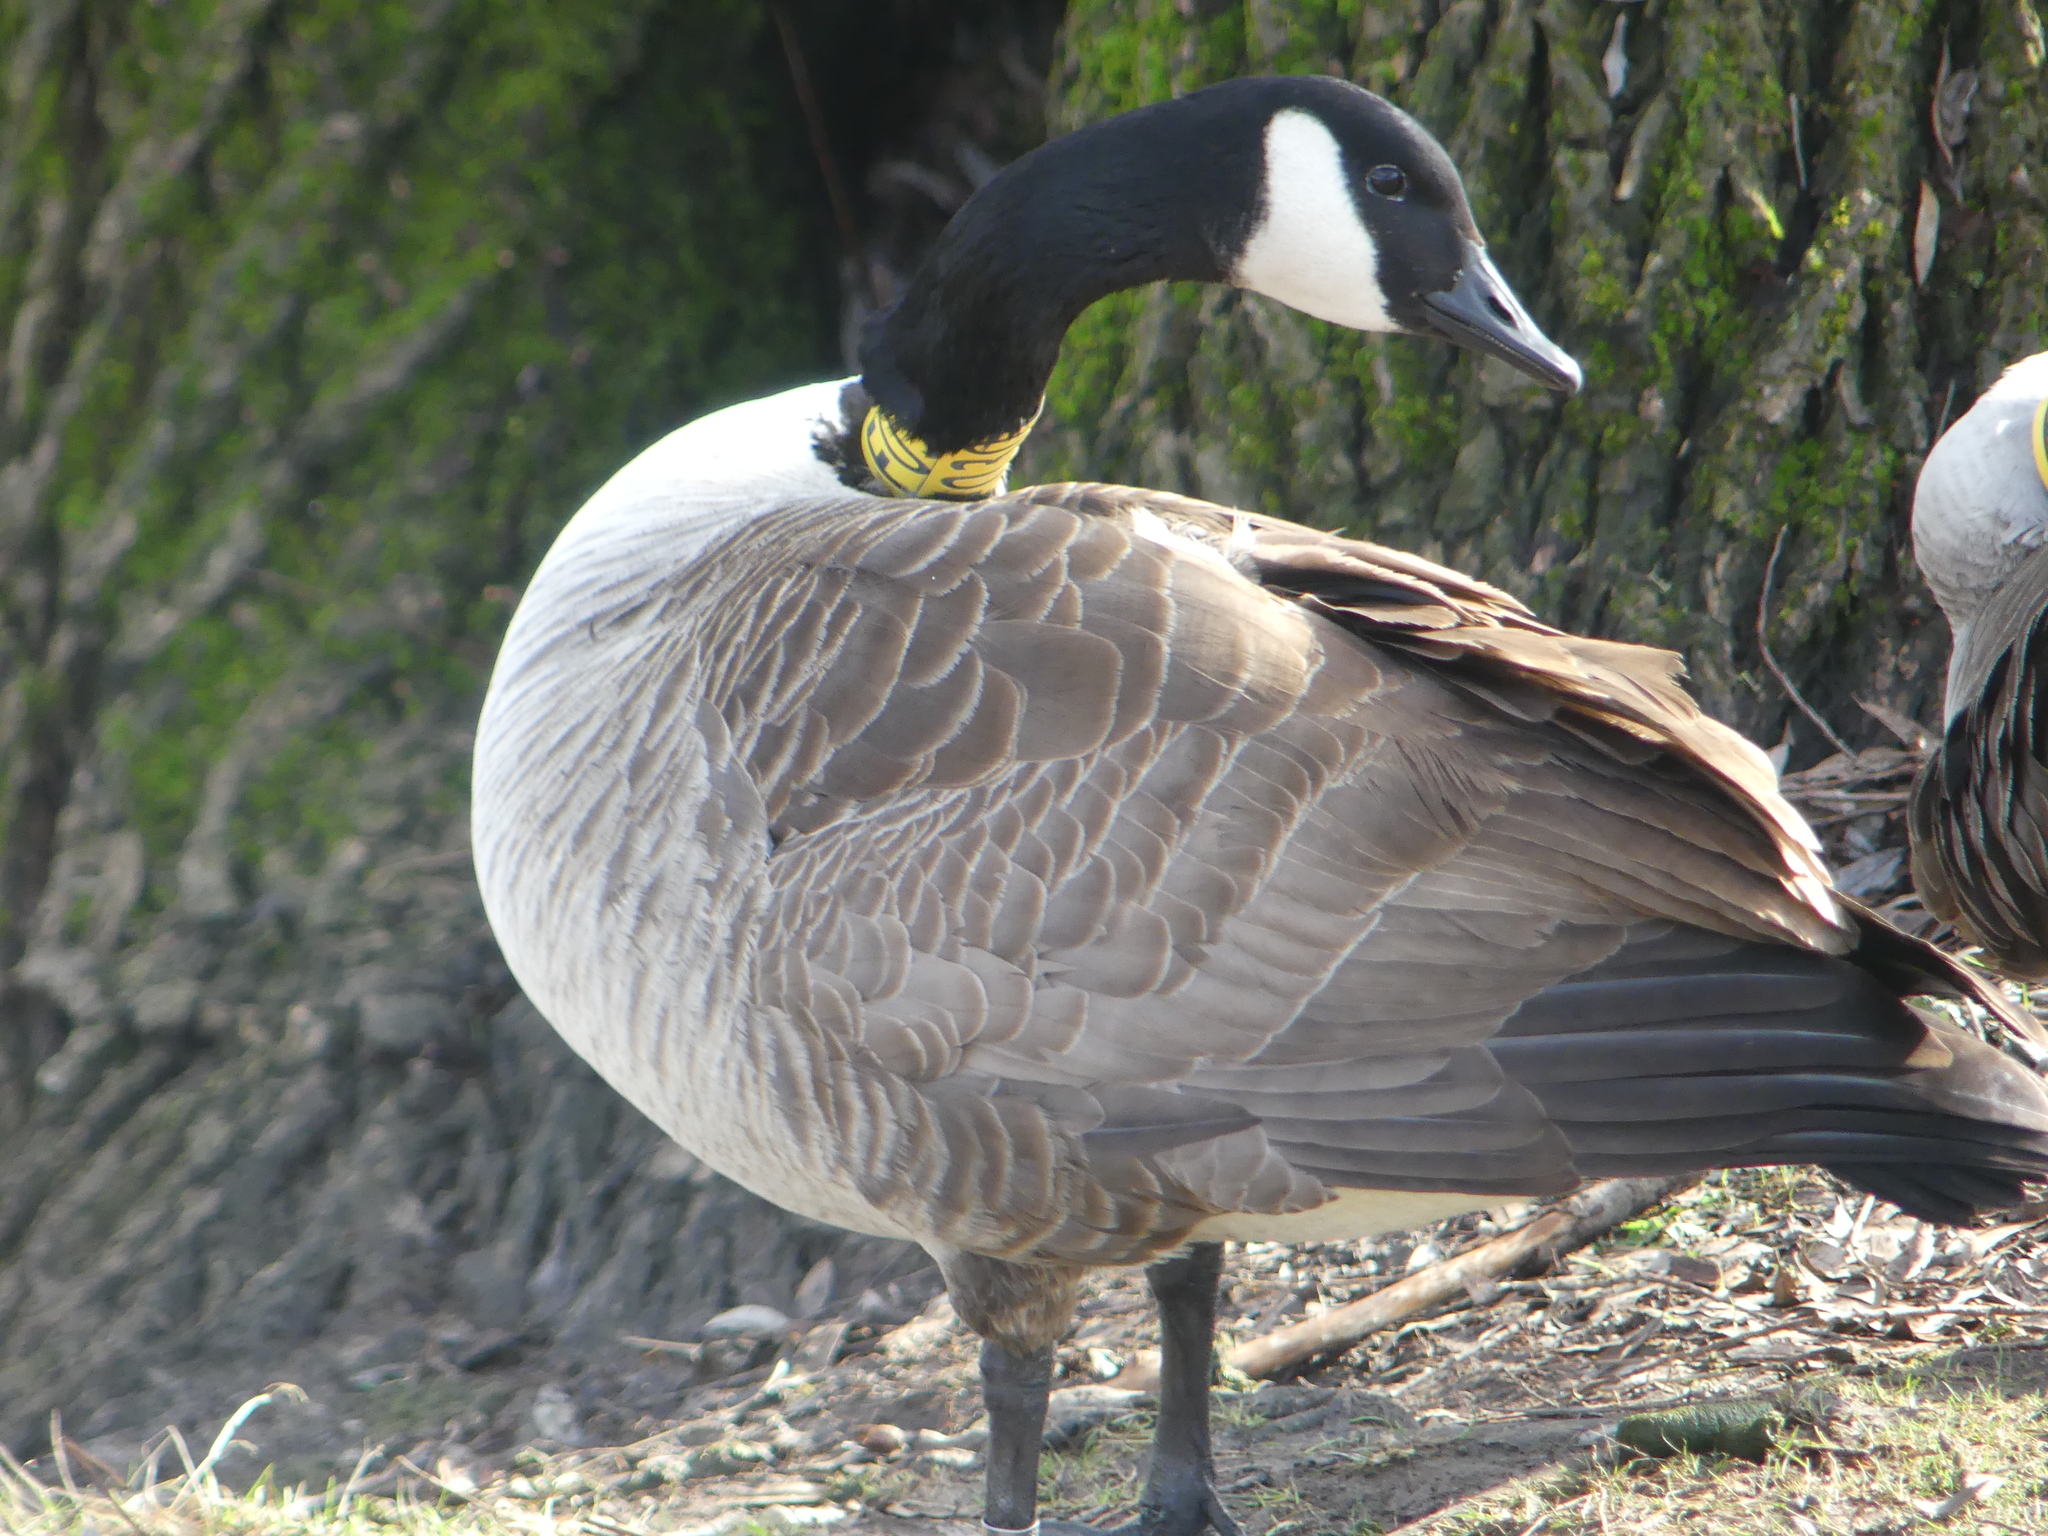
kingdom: Animalia
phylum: Chordata
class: Aves
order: Anseriformes
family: Anatidae
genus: Branta
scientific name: Branta canadensis
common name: Canada goose
